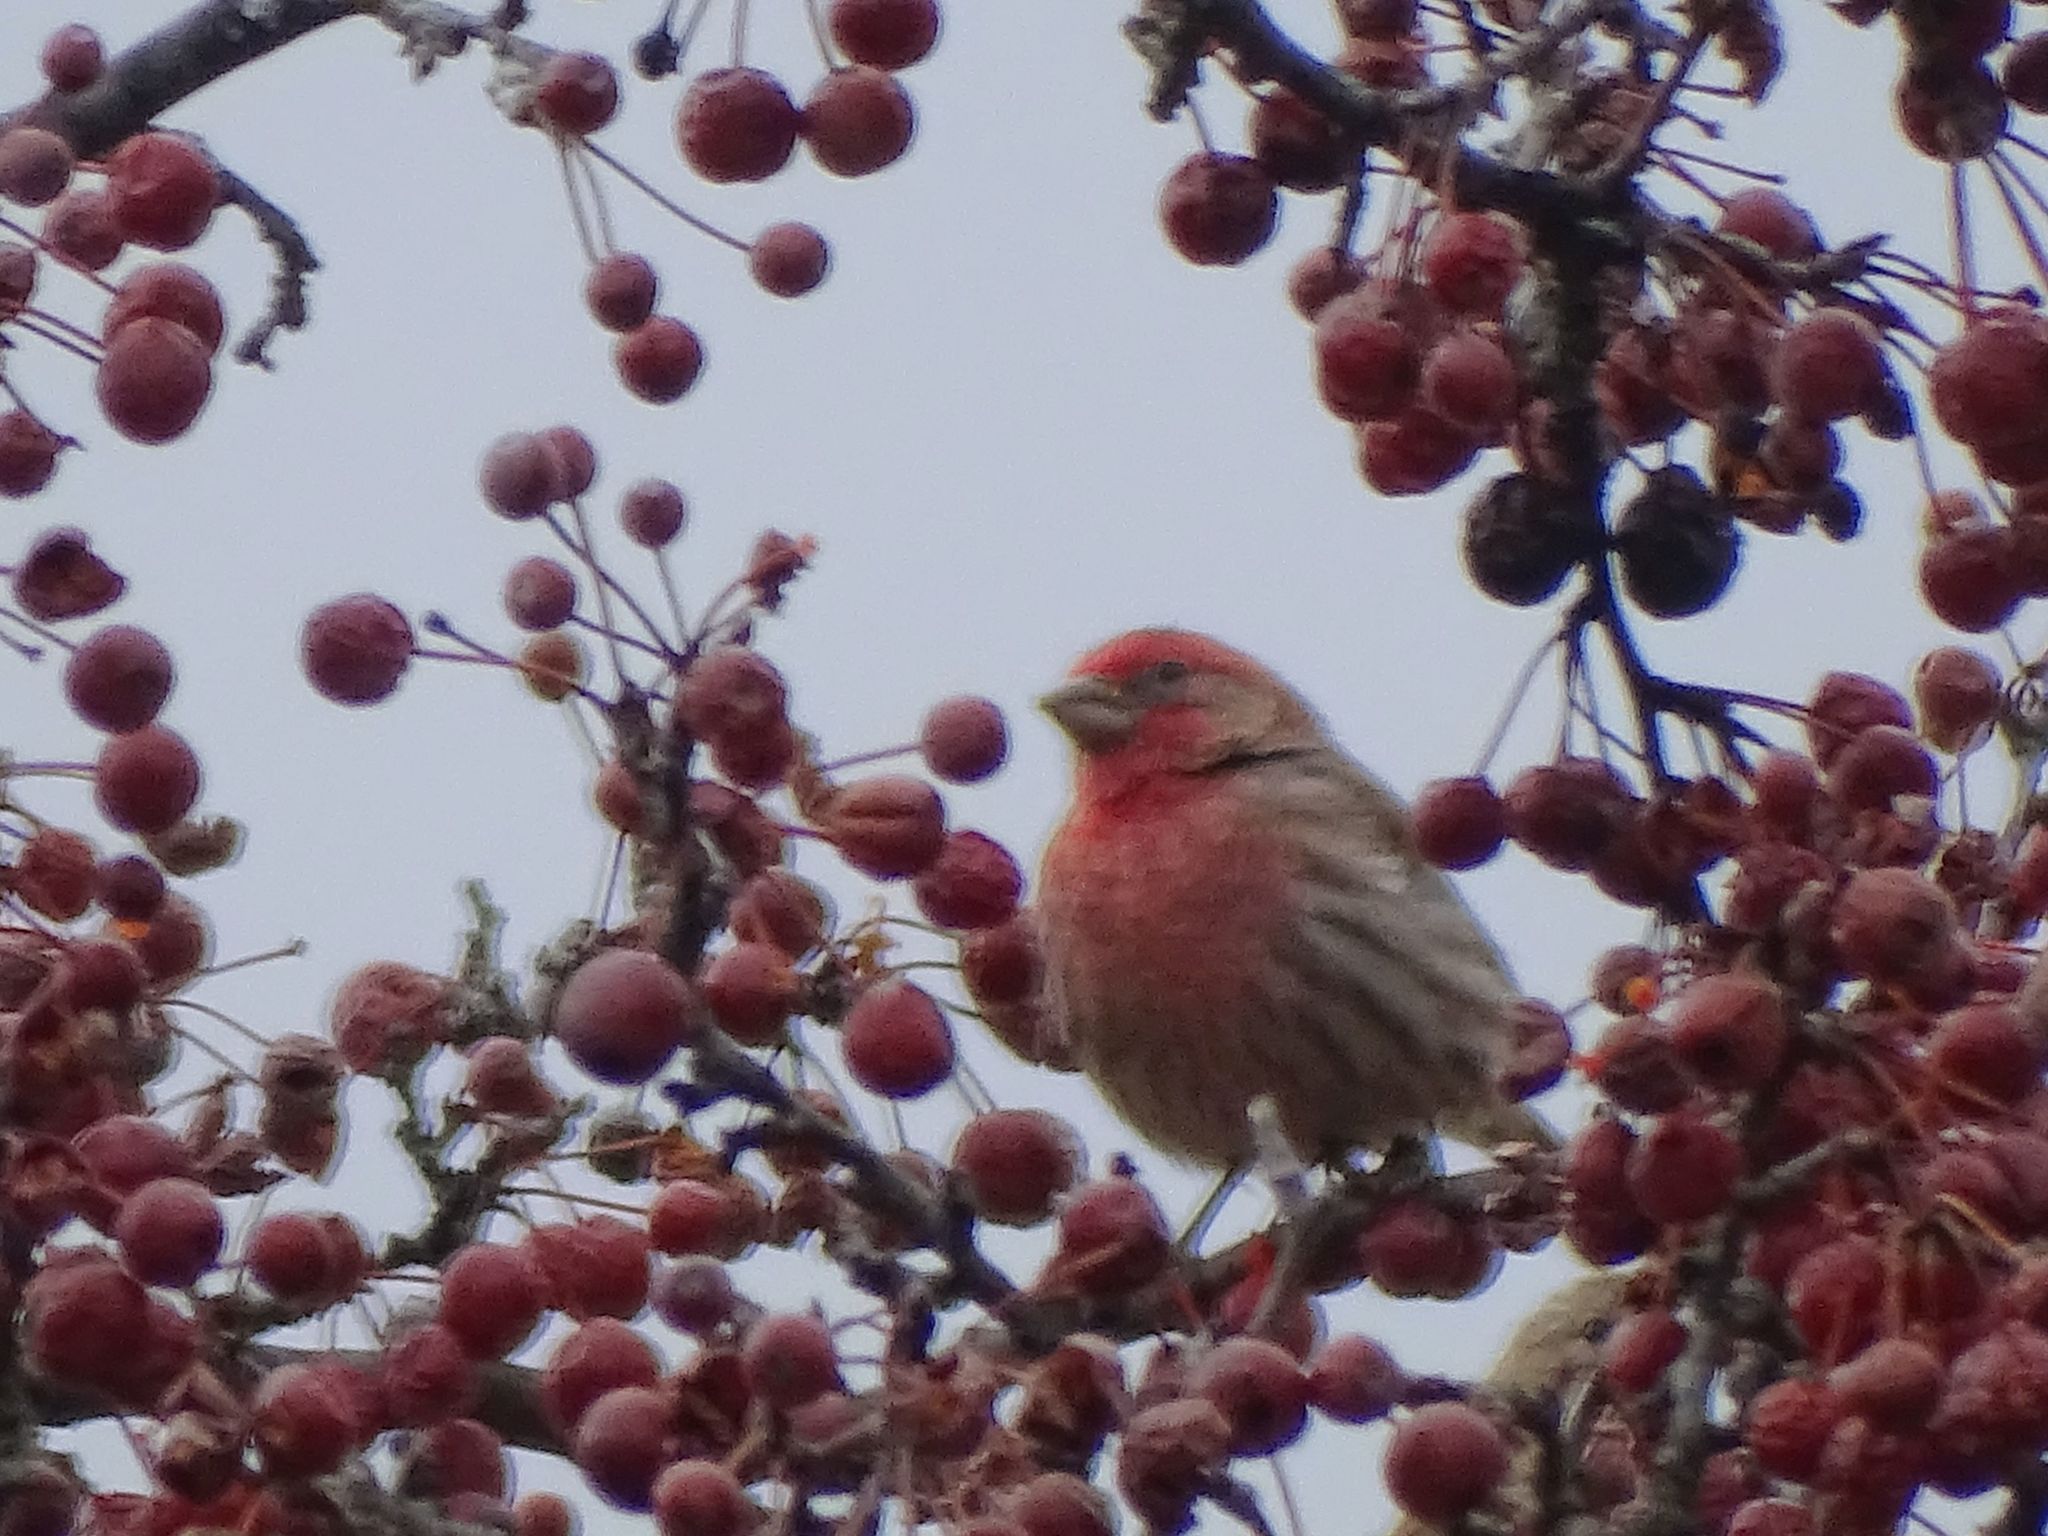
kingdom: Animalia
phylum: Chordata
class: Aves
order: Passeriformes
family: Fringillidae
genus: Haemorhous
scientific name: Haemorhous mexicanus
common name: House finch
